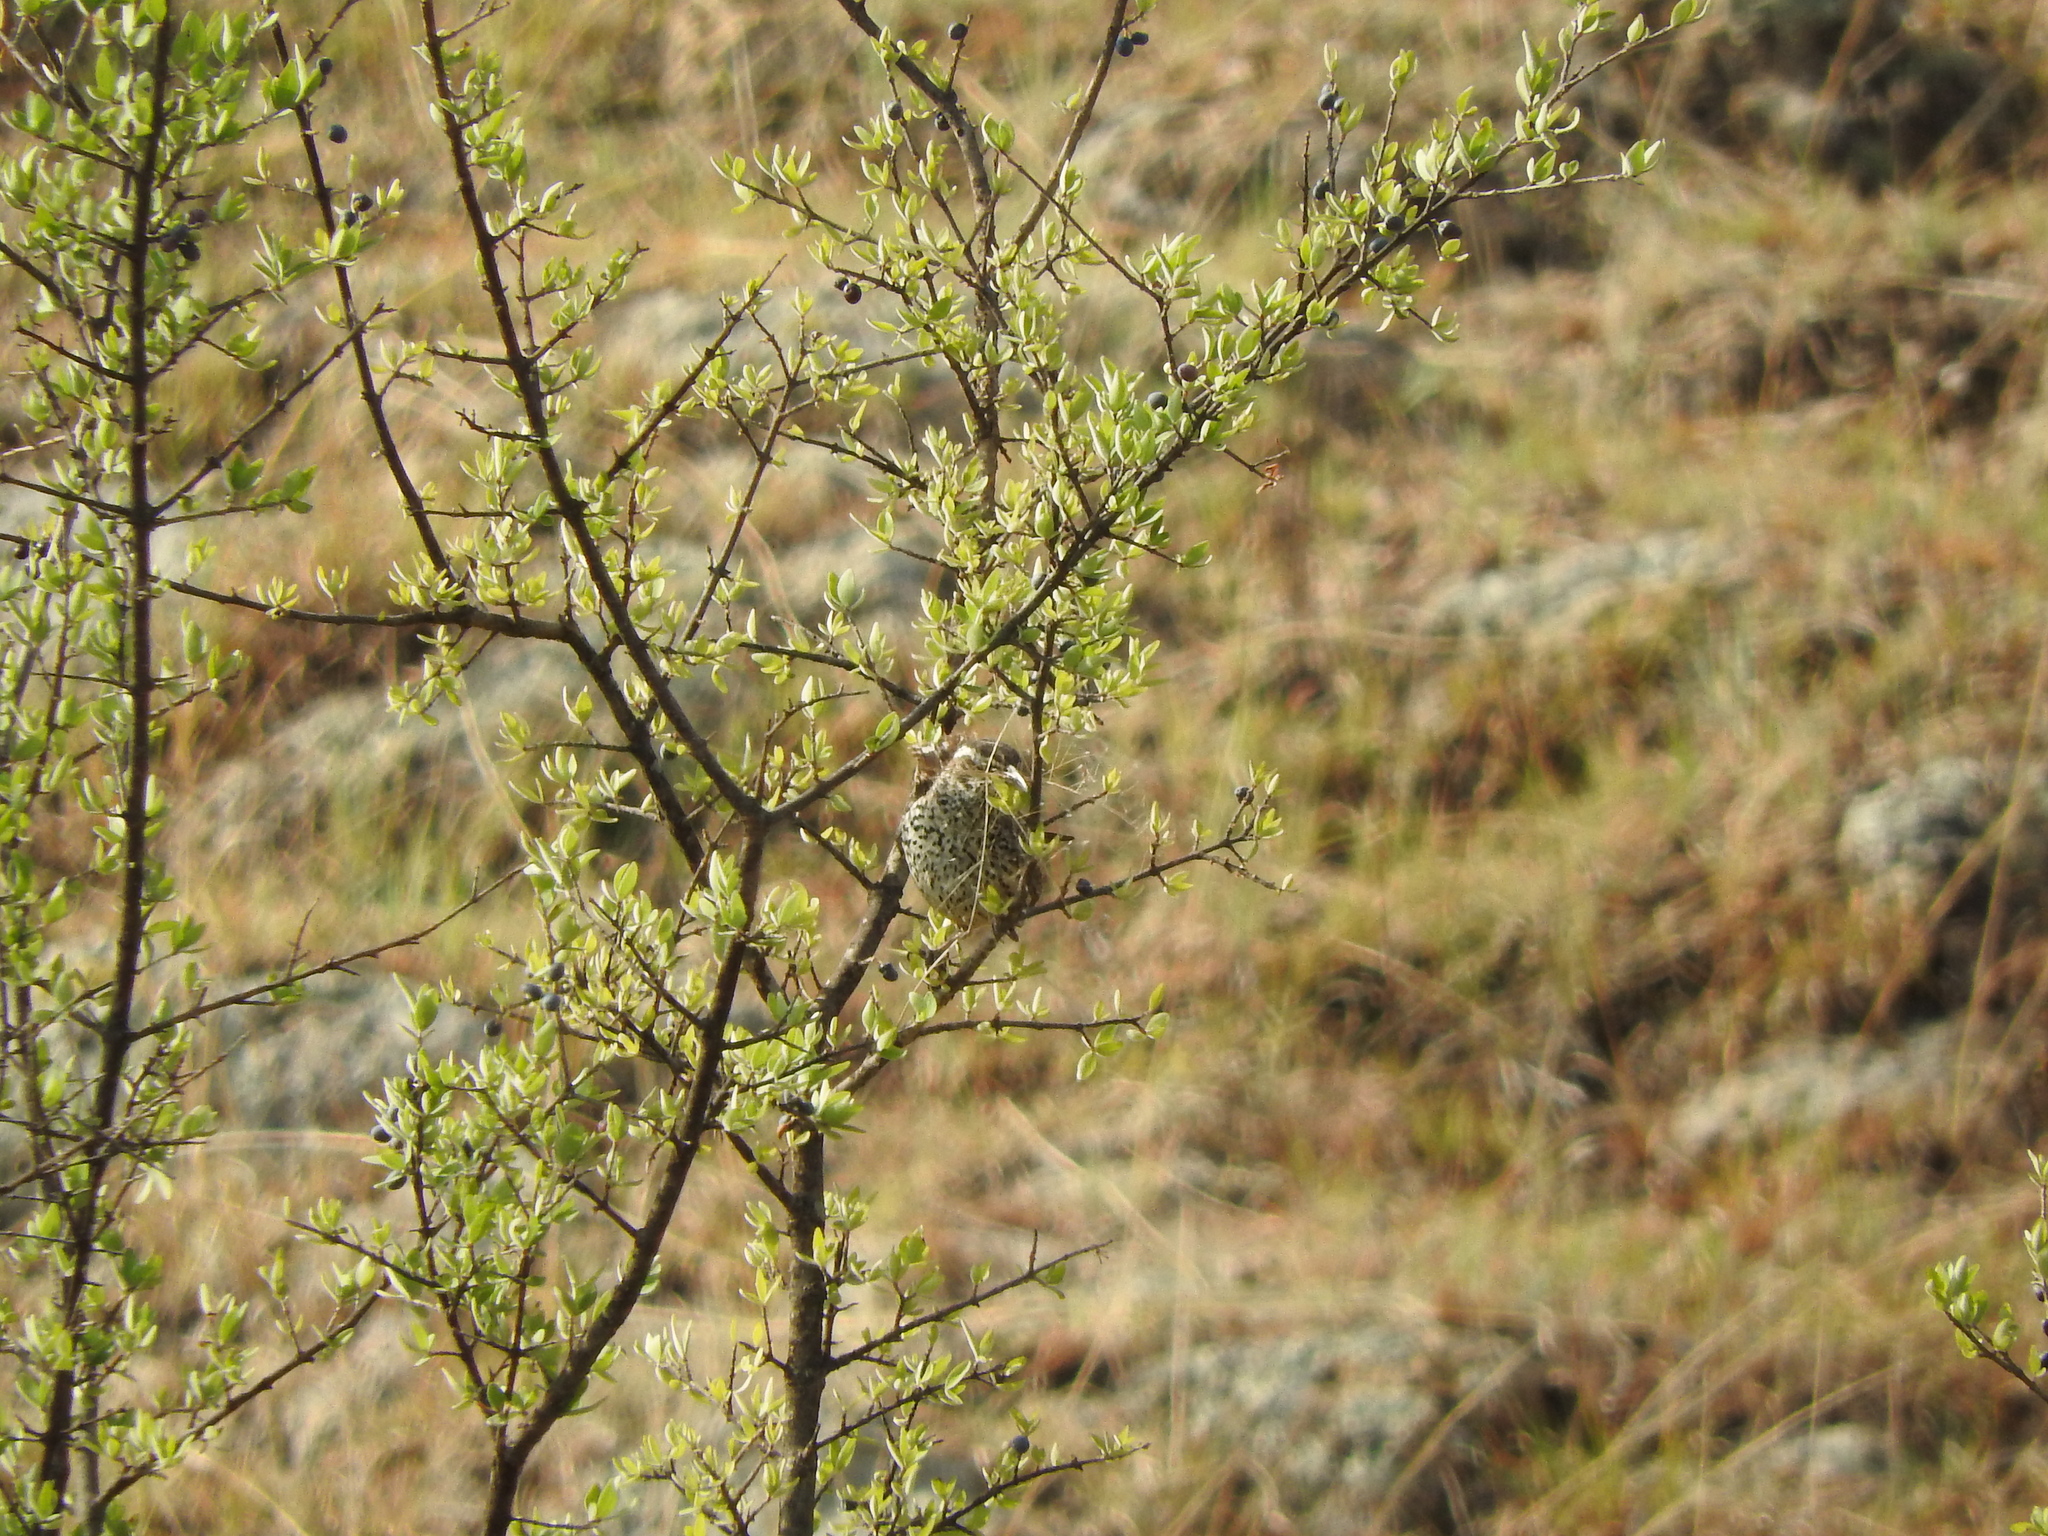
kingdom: Animalia
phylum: Chordata
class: Aves
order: Passeriformes
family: Troglodytidae
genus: Campylorhynchus
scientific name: Campylorhynchus brunneicapillus
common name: Cactus wren
